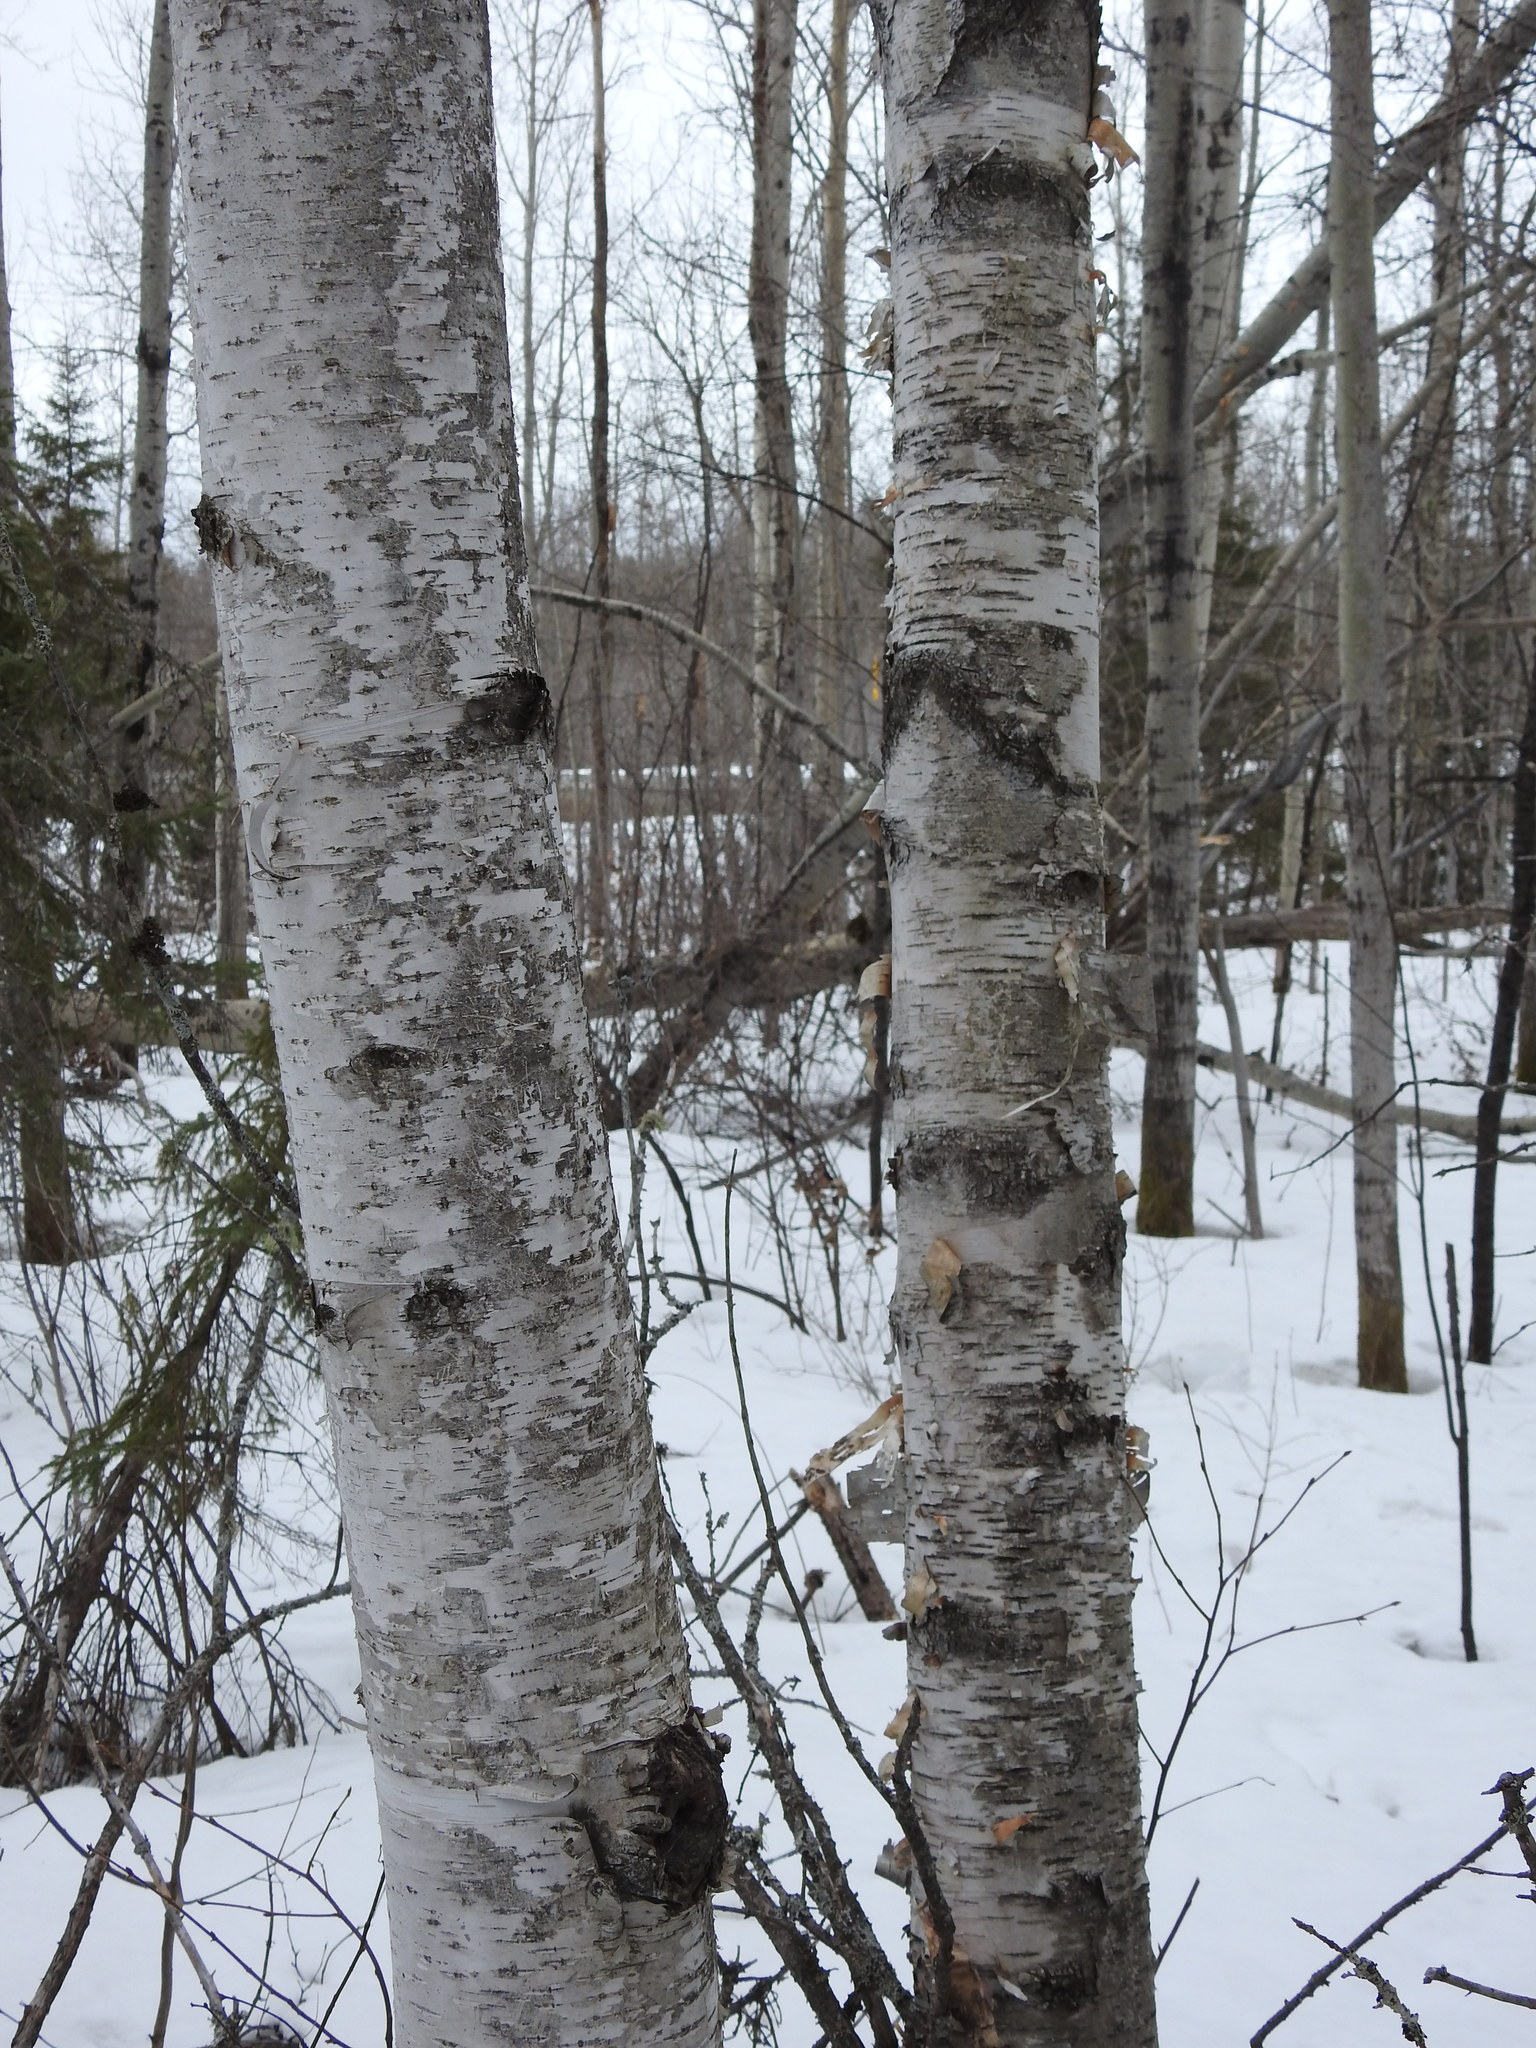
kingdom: Plantae
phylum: Tracheophyta
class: Magnoliopsida
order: Fagales
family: Betulaceae
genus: Betula
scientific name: Betula papyrifera
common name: Paper birch
